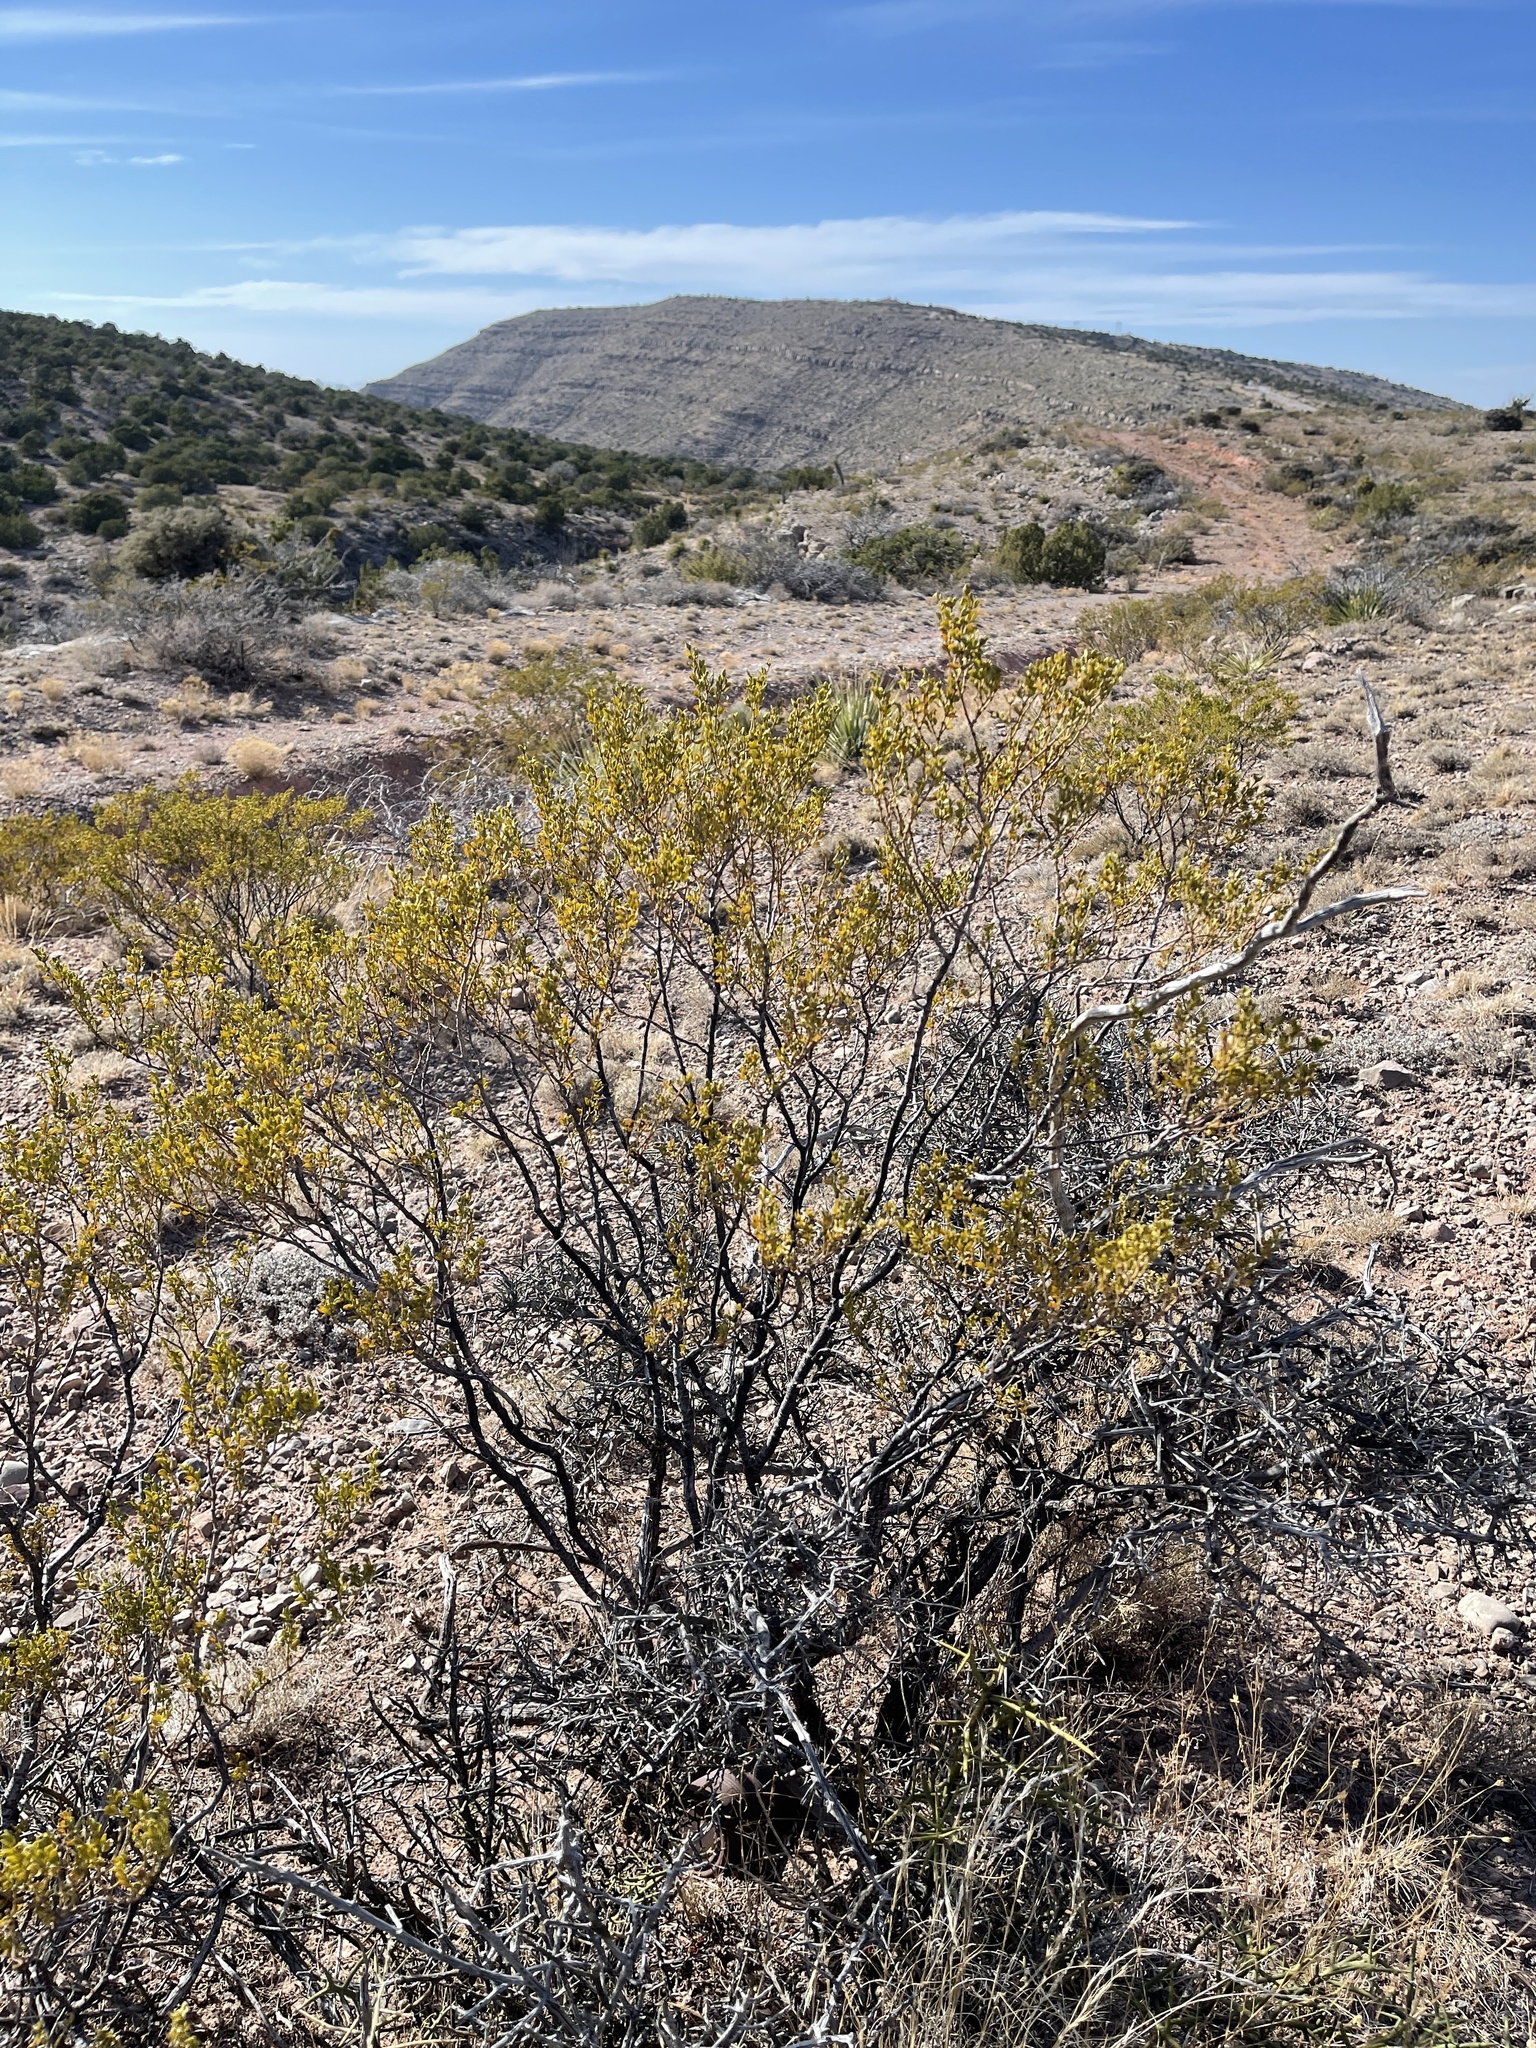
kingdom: Plantae
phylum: Tracheophyta
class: Magnoliopsida
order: Zygophyllales
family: Zygophyllaceae
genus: Larrea
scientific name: Larrea tridentata
